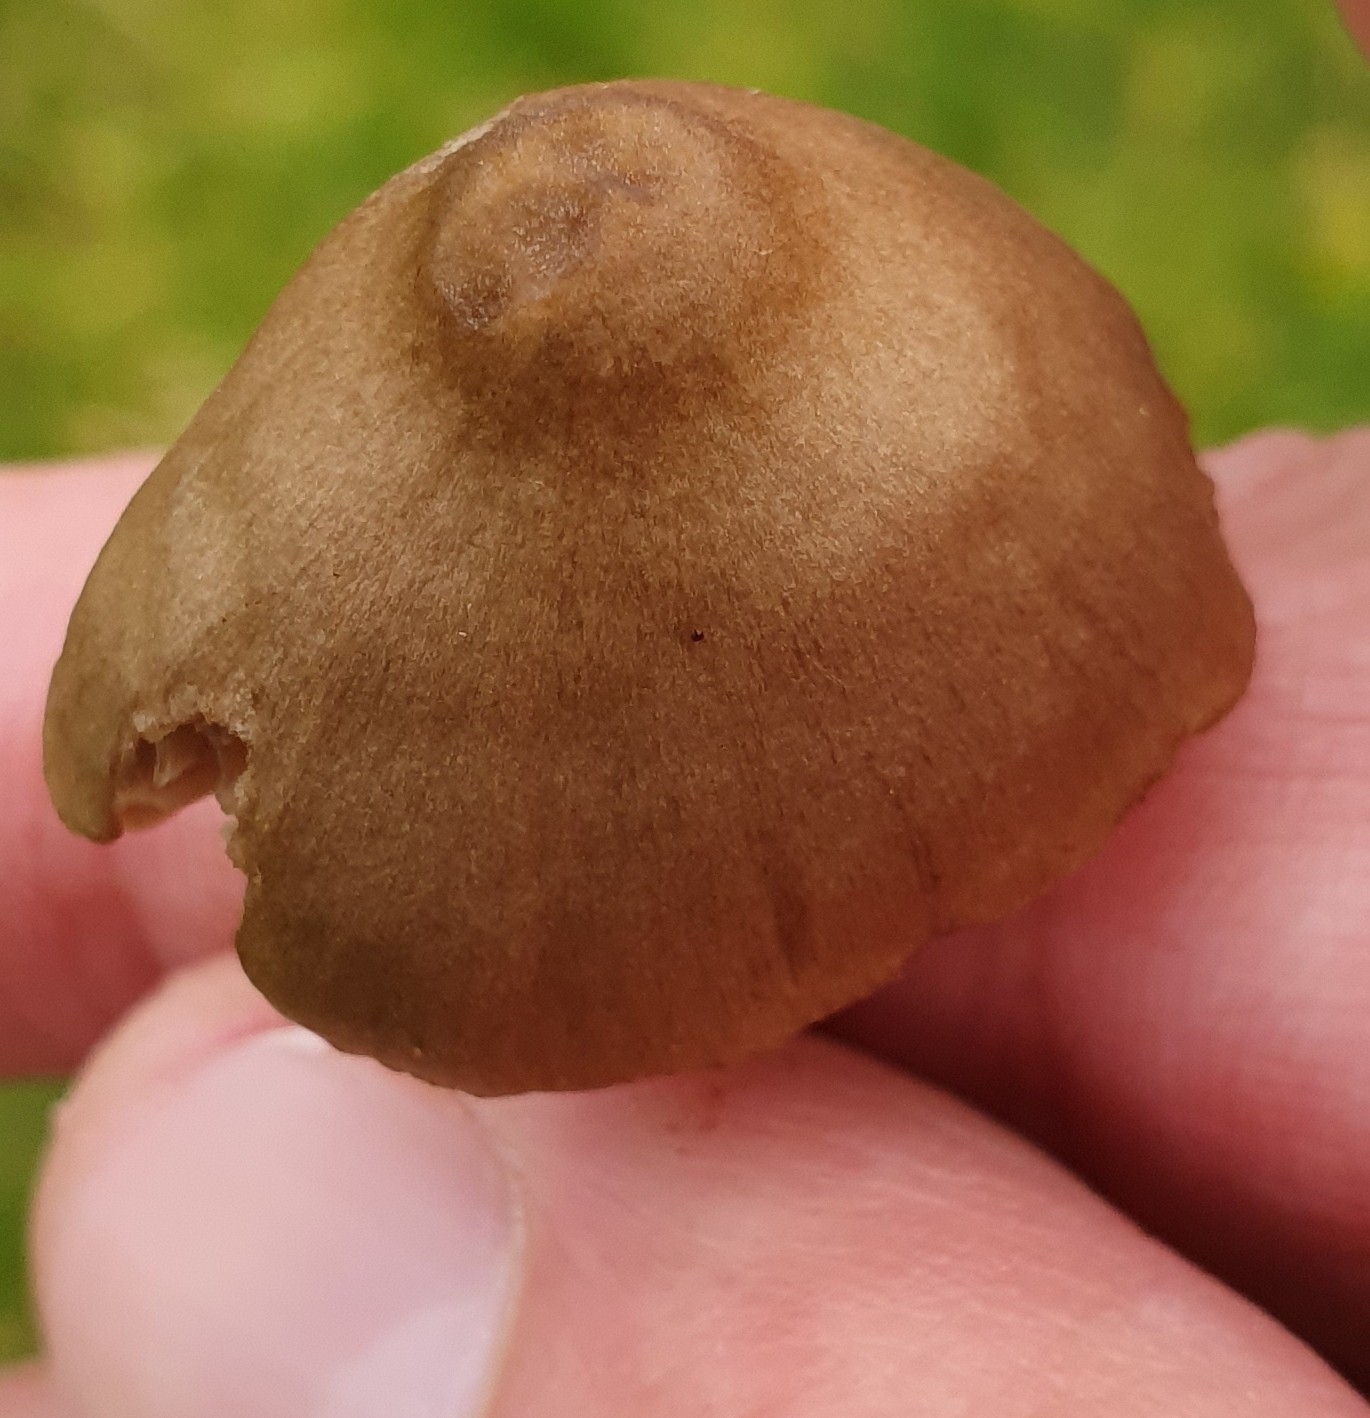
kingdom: Fungi
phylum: Basidiomycota
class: Agaricomycetes
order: Agaricales
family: Entolomataceae
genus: Entoloma
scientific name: Entoloma conferendum
